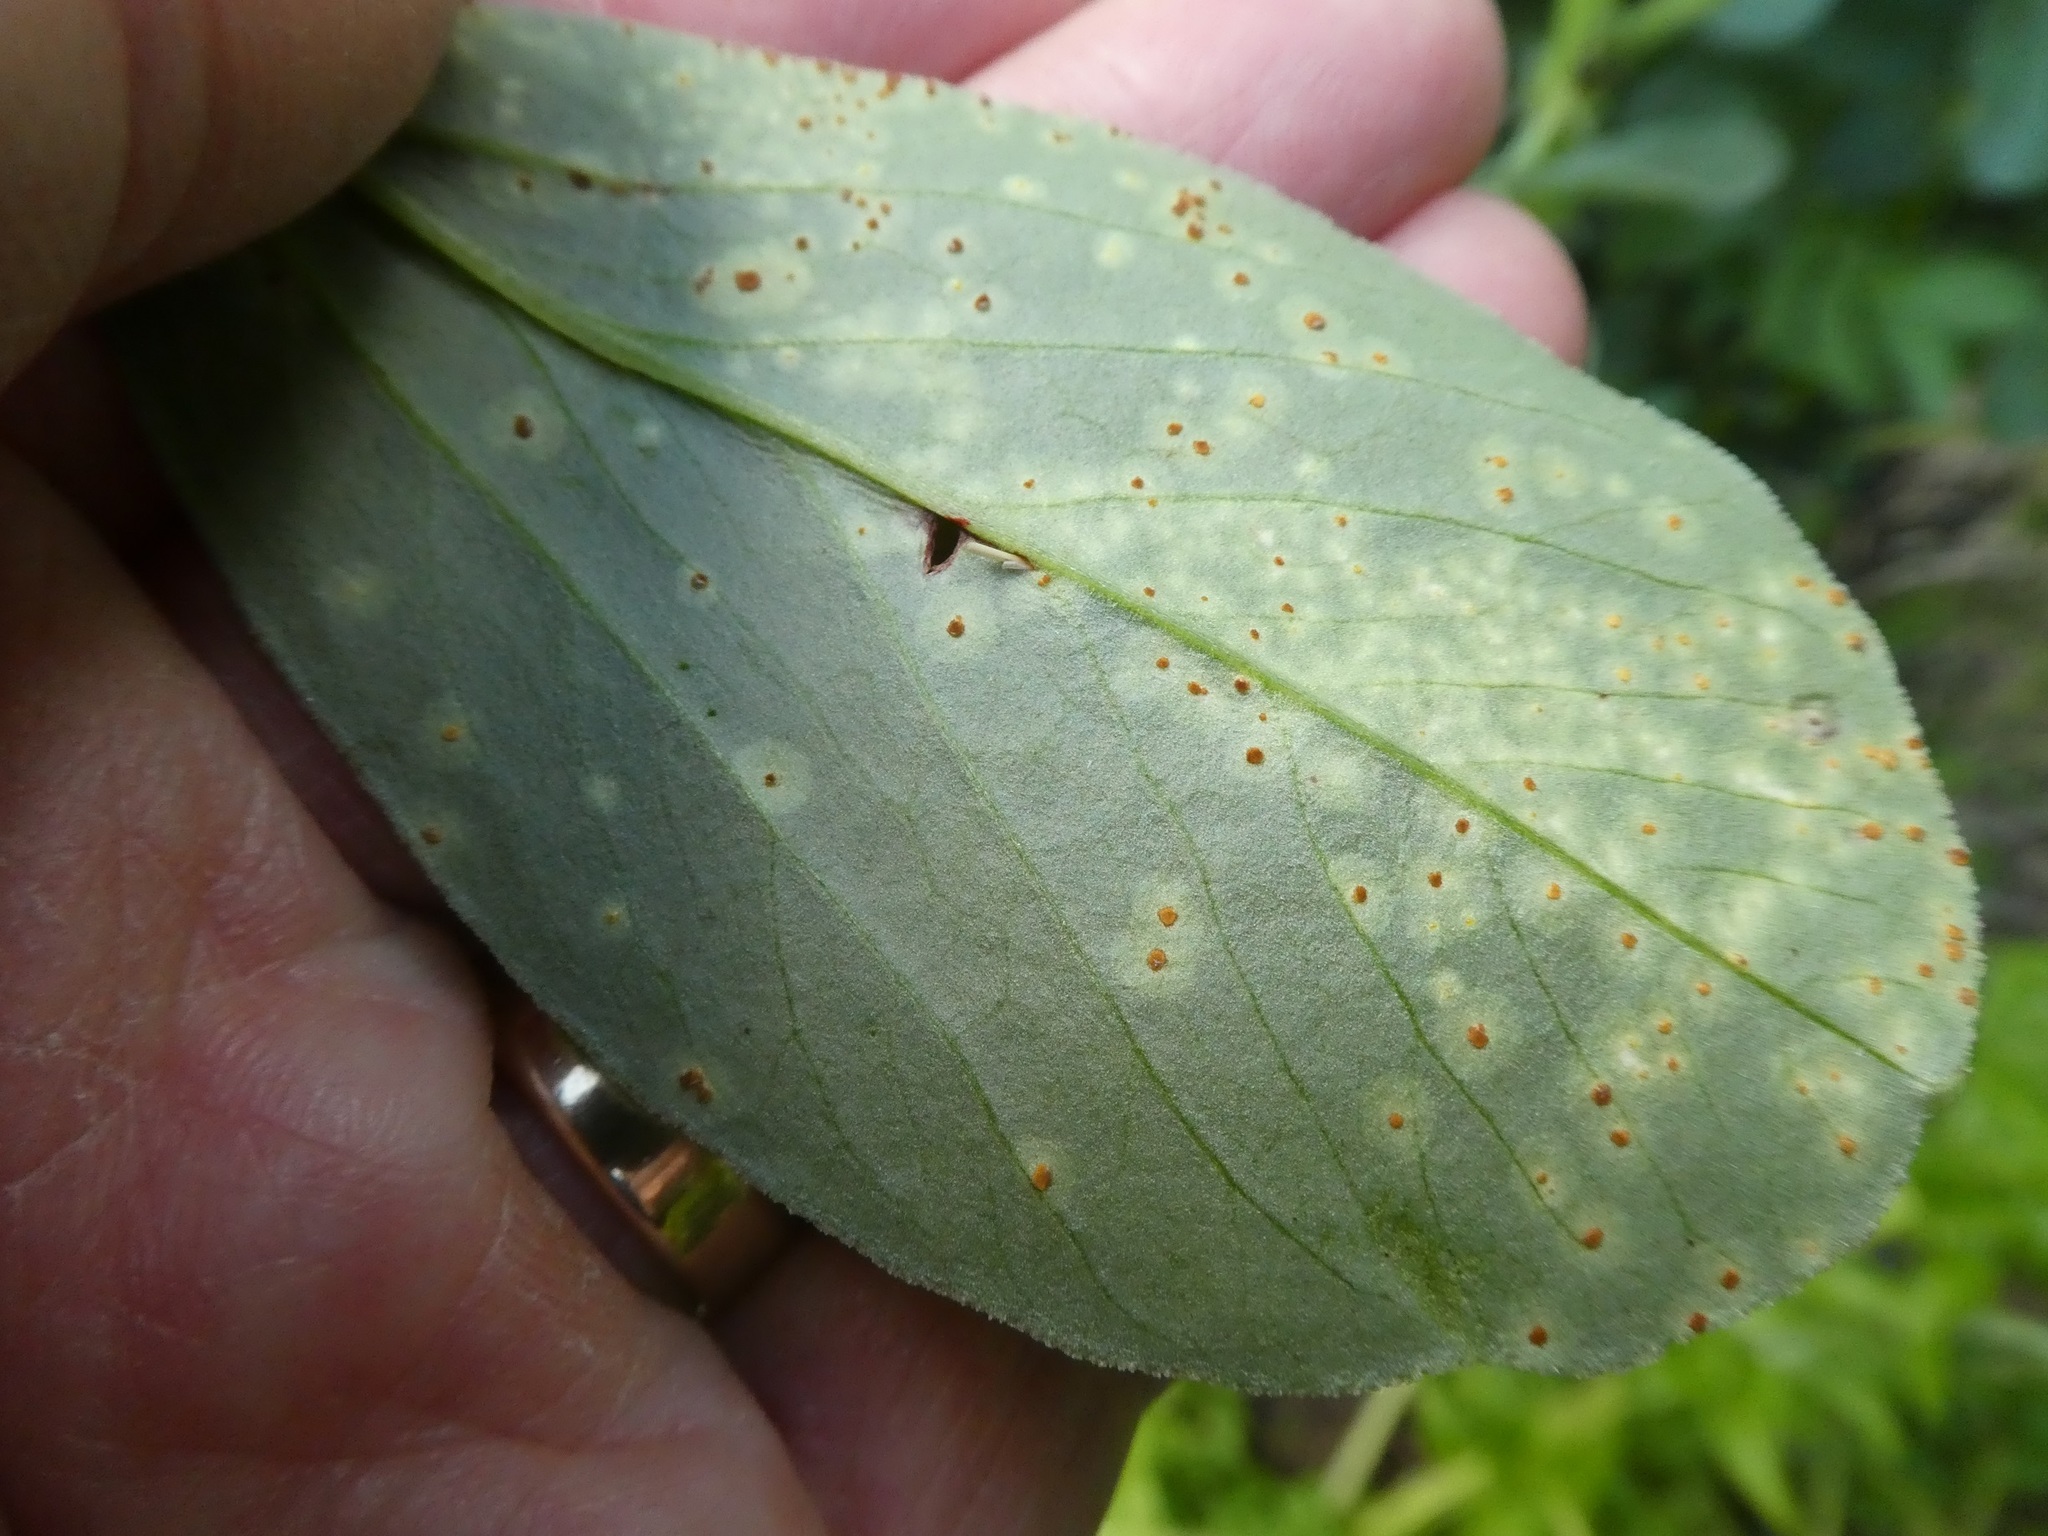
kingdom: Fungi
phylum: Basidiomycota
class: Pucciniomycetes
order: Pucciniales
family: Pucciniaceae
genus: Uromyces
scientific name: Uromyces viciae-fabae
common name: Broad bean rust
